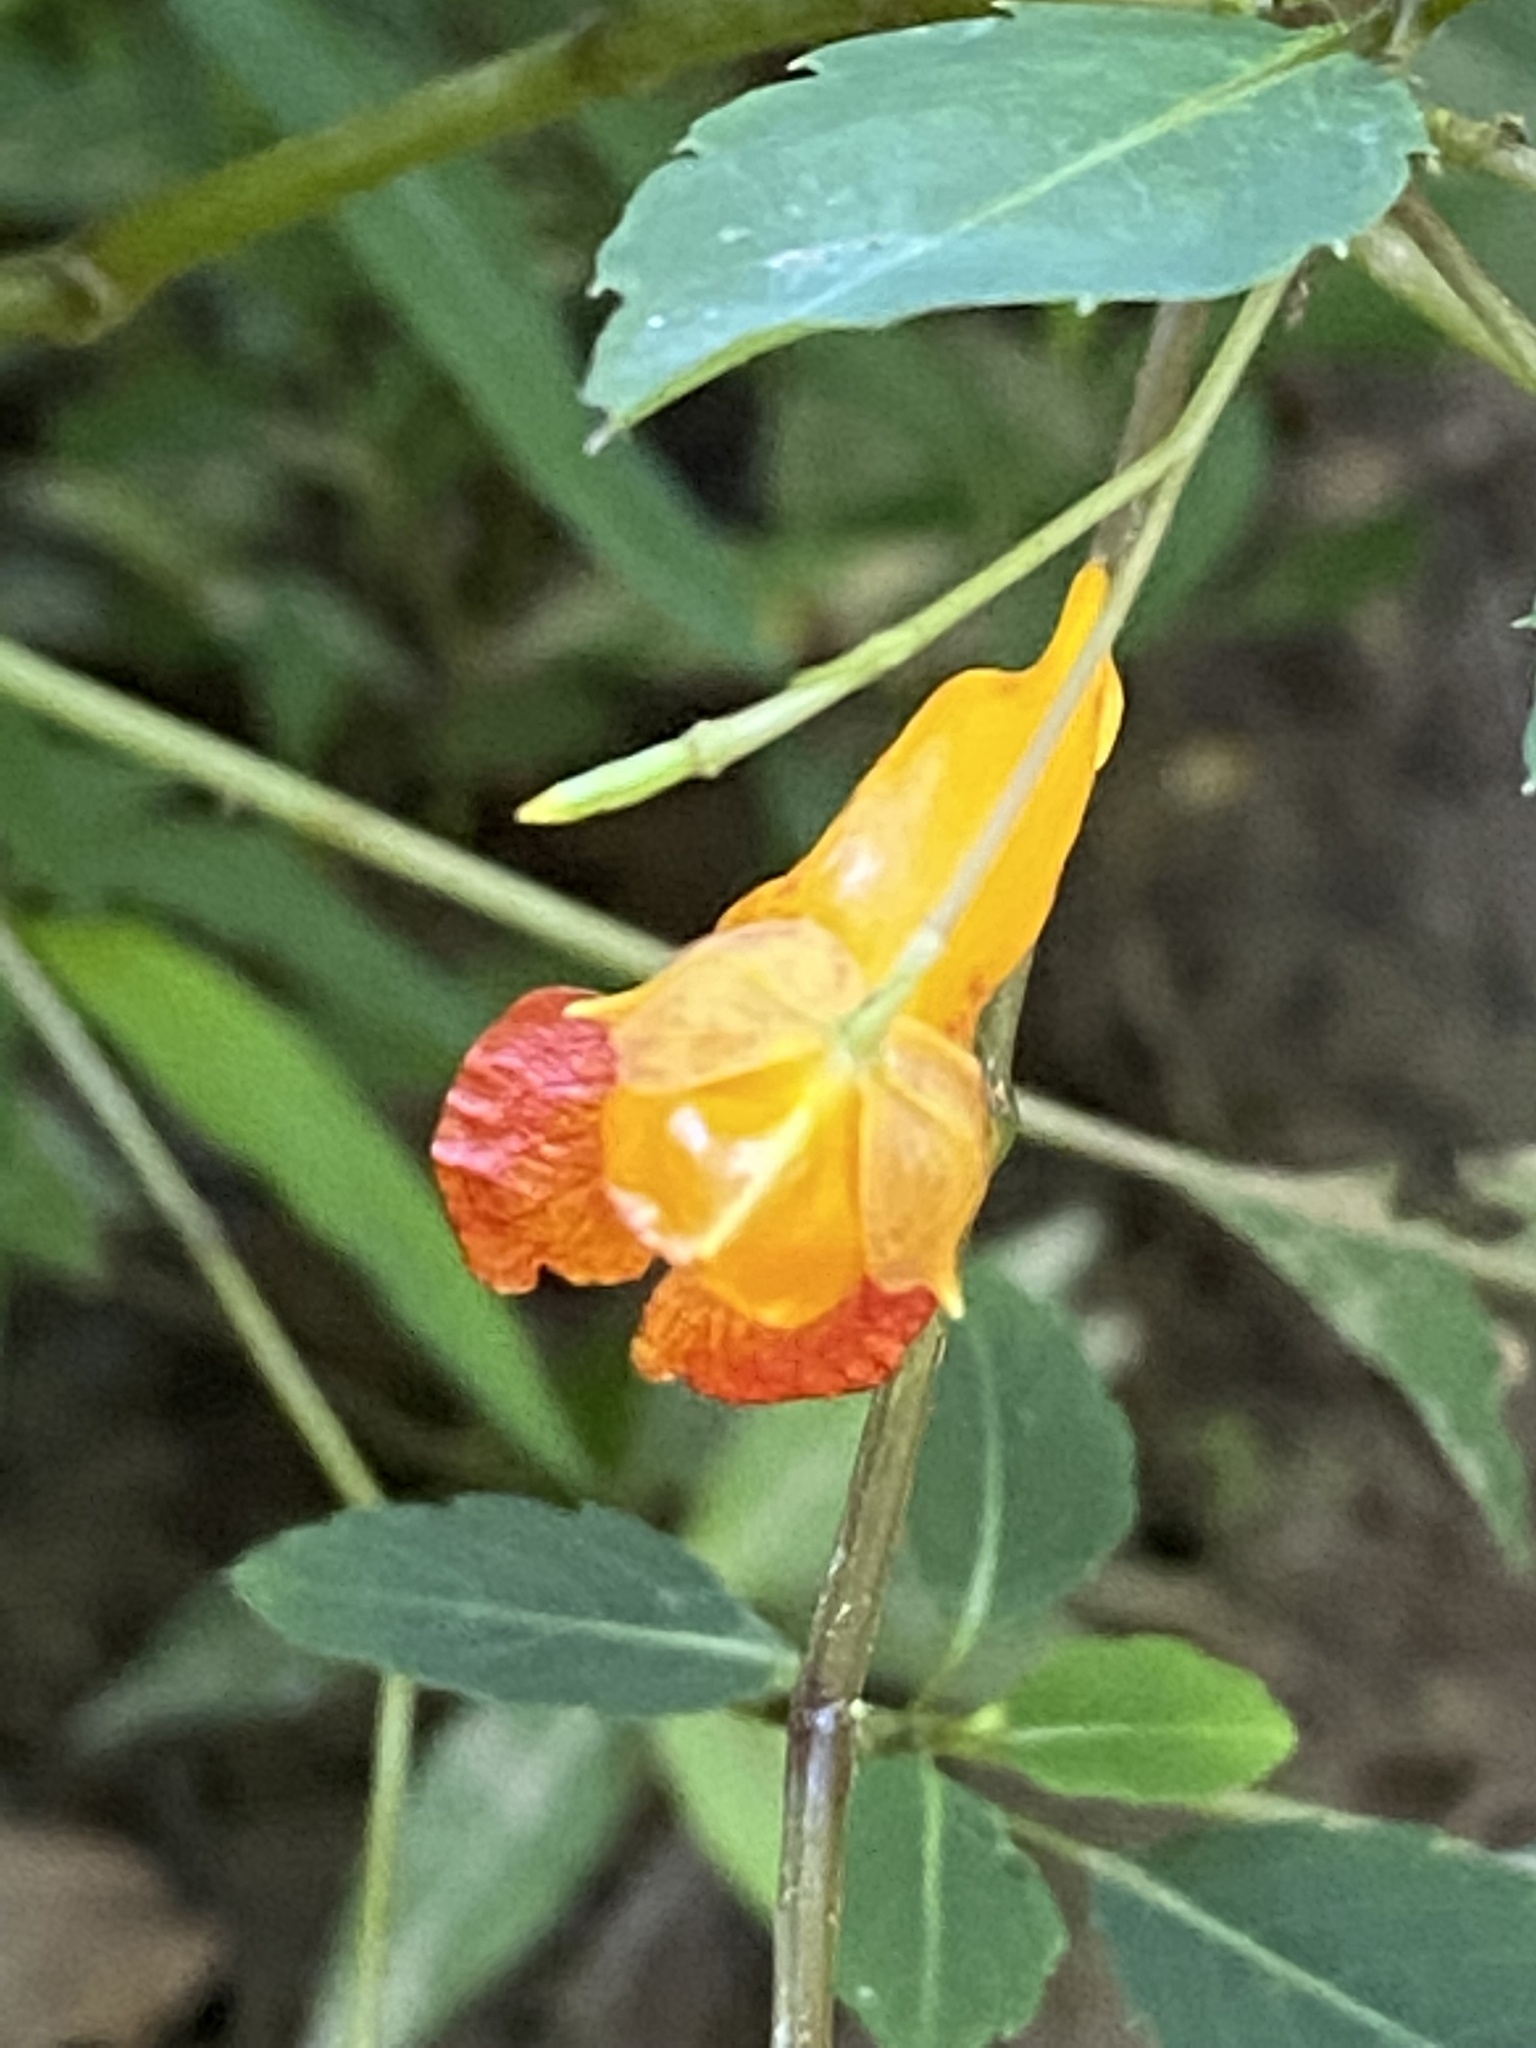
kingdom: Plantae
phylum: Tracheophyta
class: Magnoliopsida
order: Ericales
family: Balsaminaceae
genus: Impatiens
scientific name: Impatiens capensis
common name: Orange balsam
